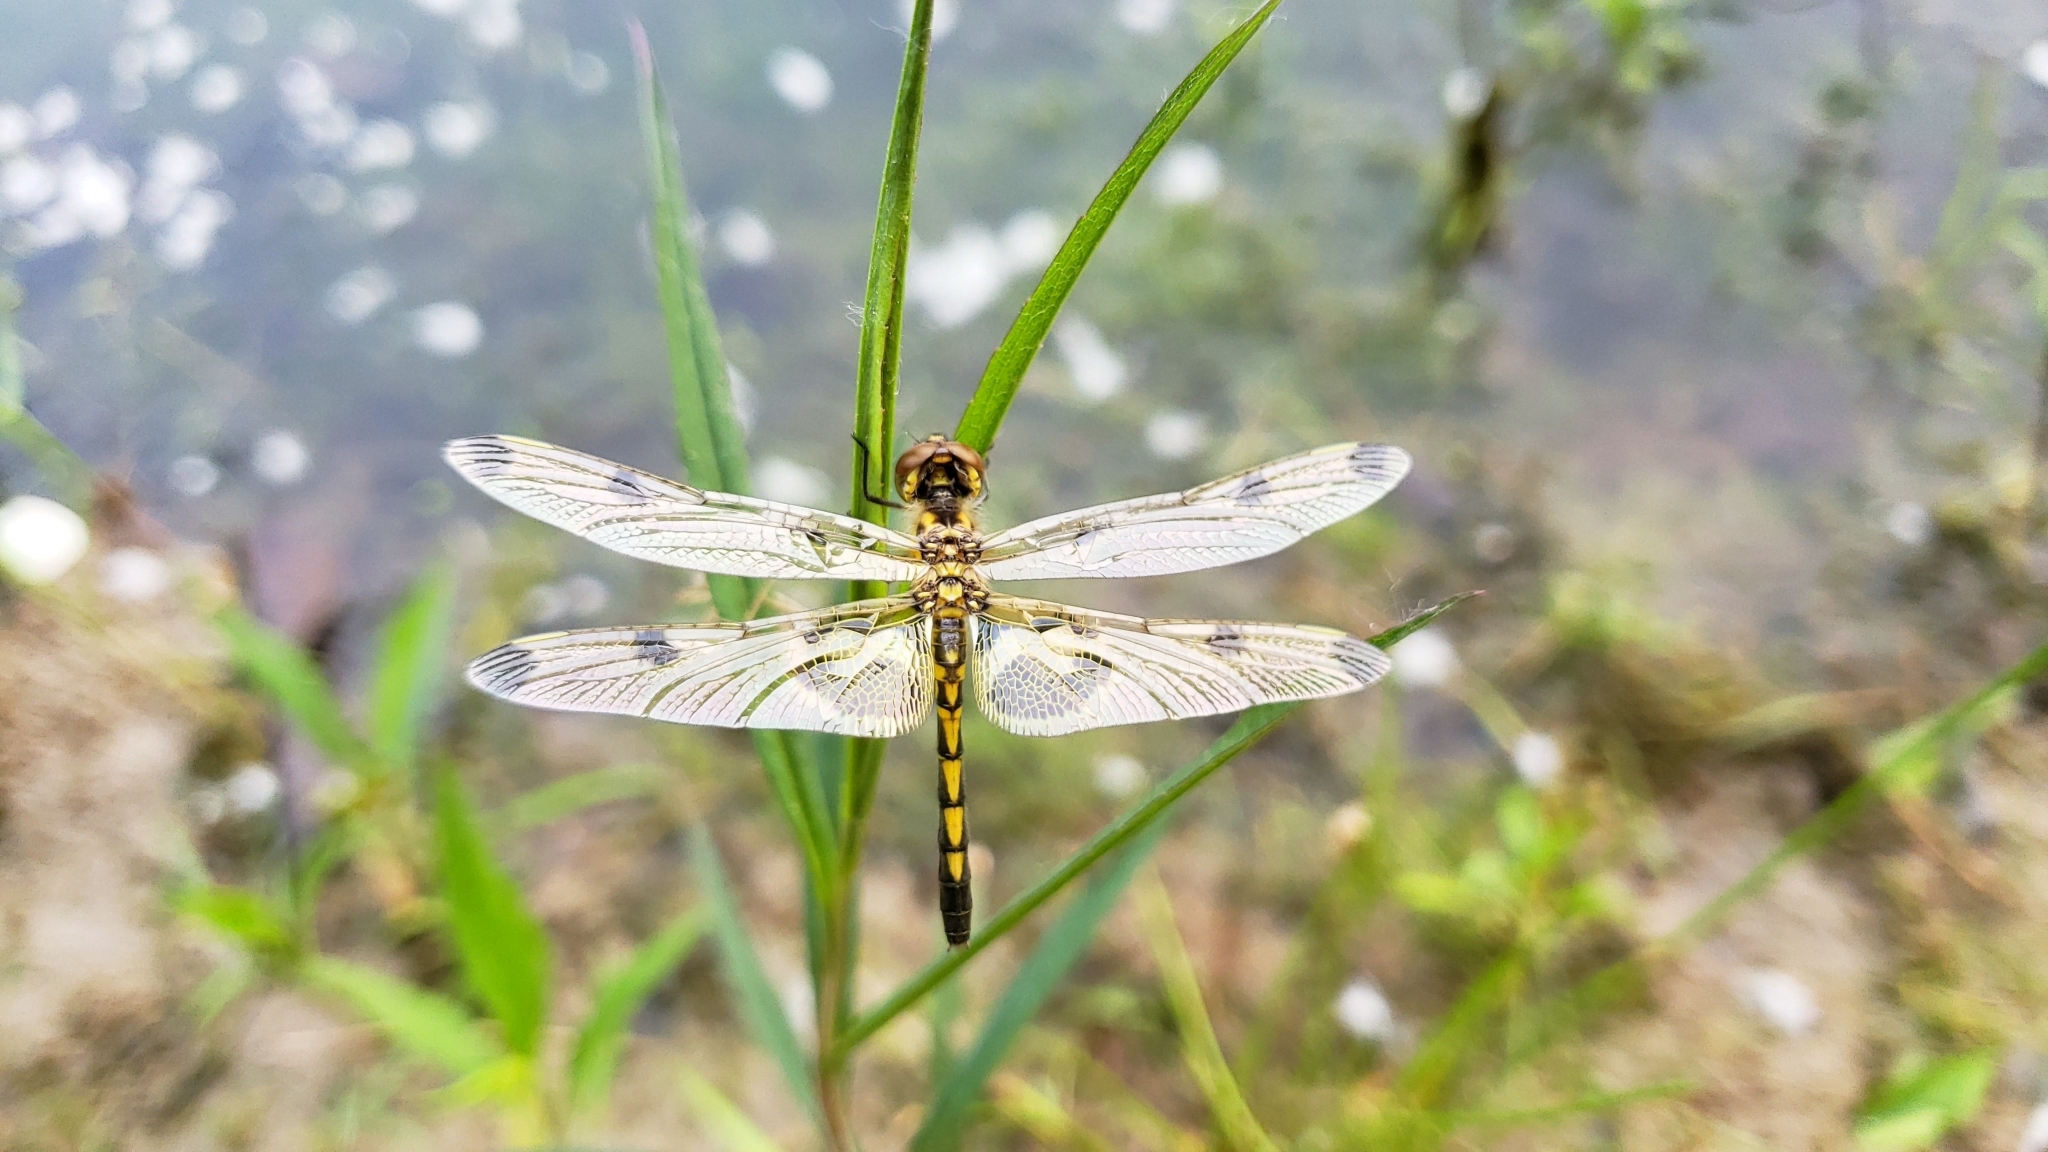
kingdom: Animalia
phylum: Arthropoda
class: Insecta
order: Odonata
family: Libellulidae
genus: Celithemis
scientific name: Celithemis elisa
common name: Calico pennant
